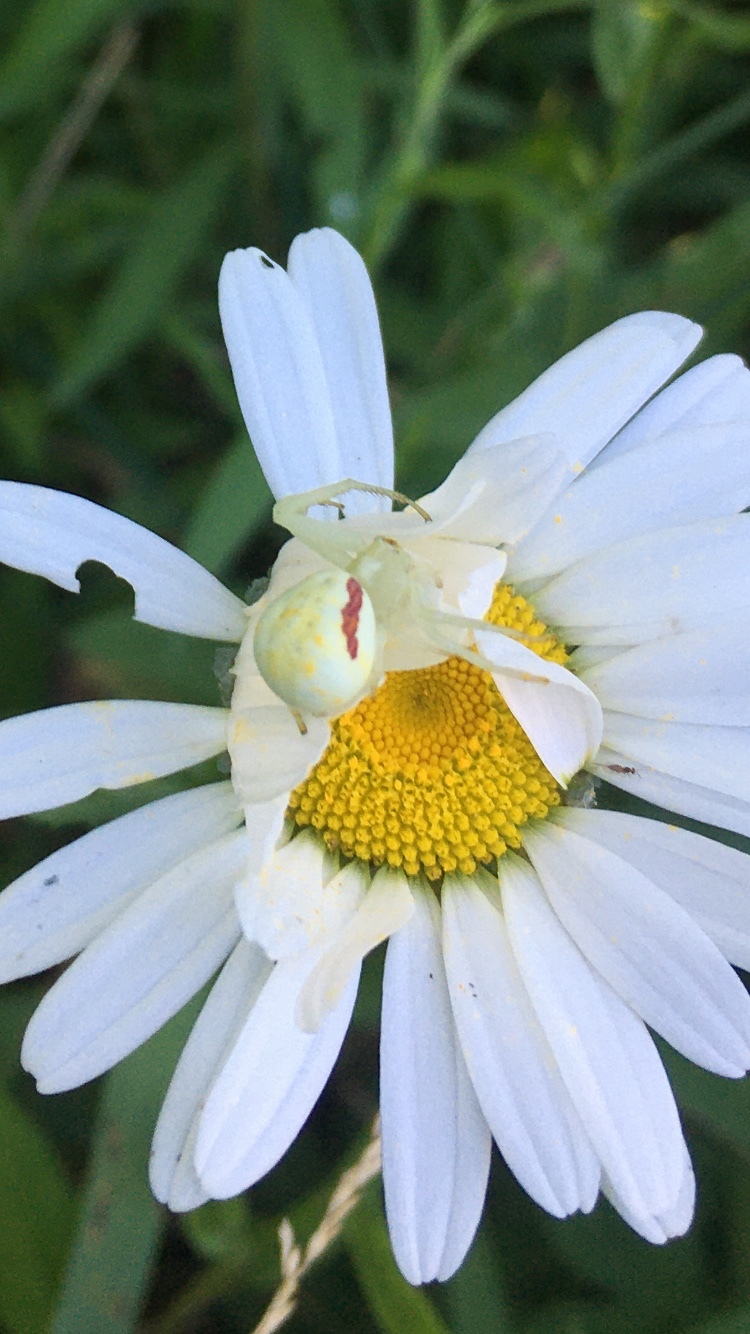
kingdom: Animalia
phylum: Arthropoda
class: Arachnida
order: Araneae
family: Thomisidae
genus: Misumena
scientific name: Misumena vatia
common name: Goldenrod crab spider
